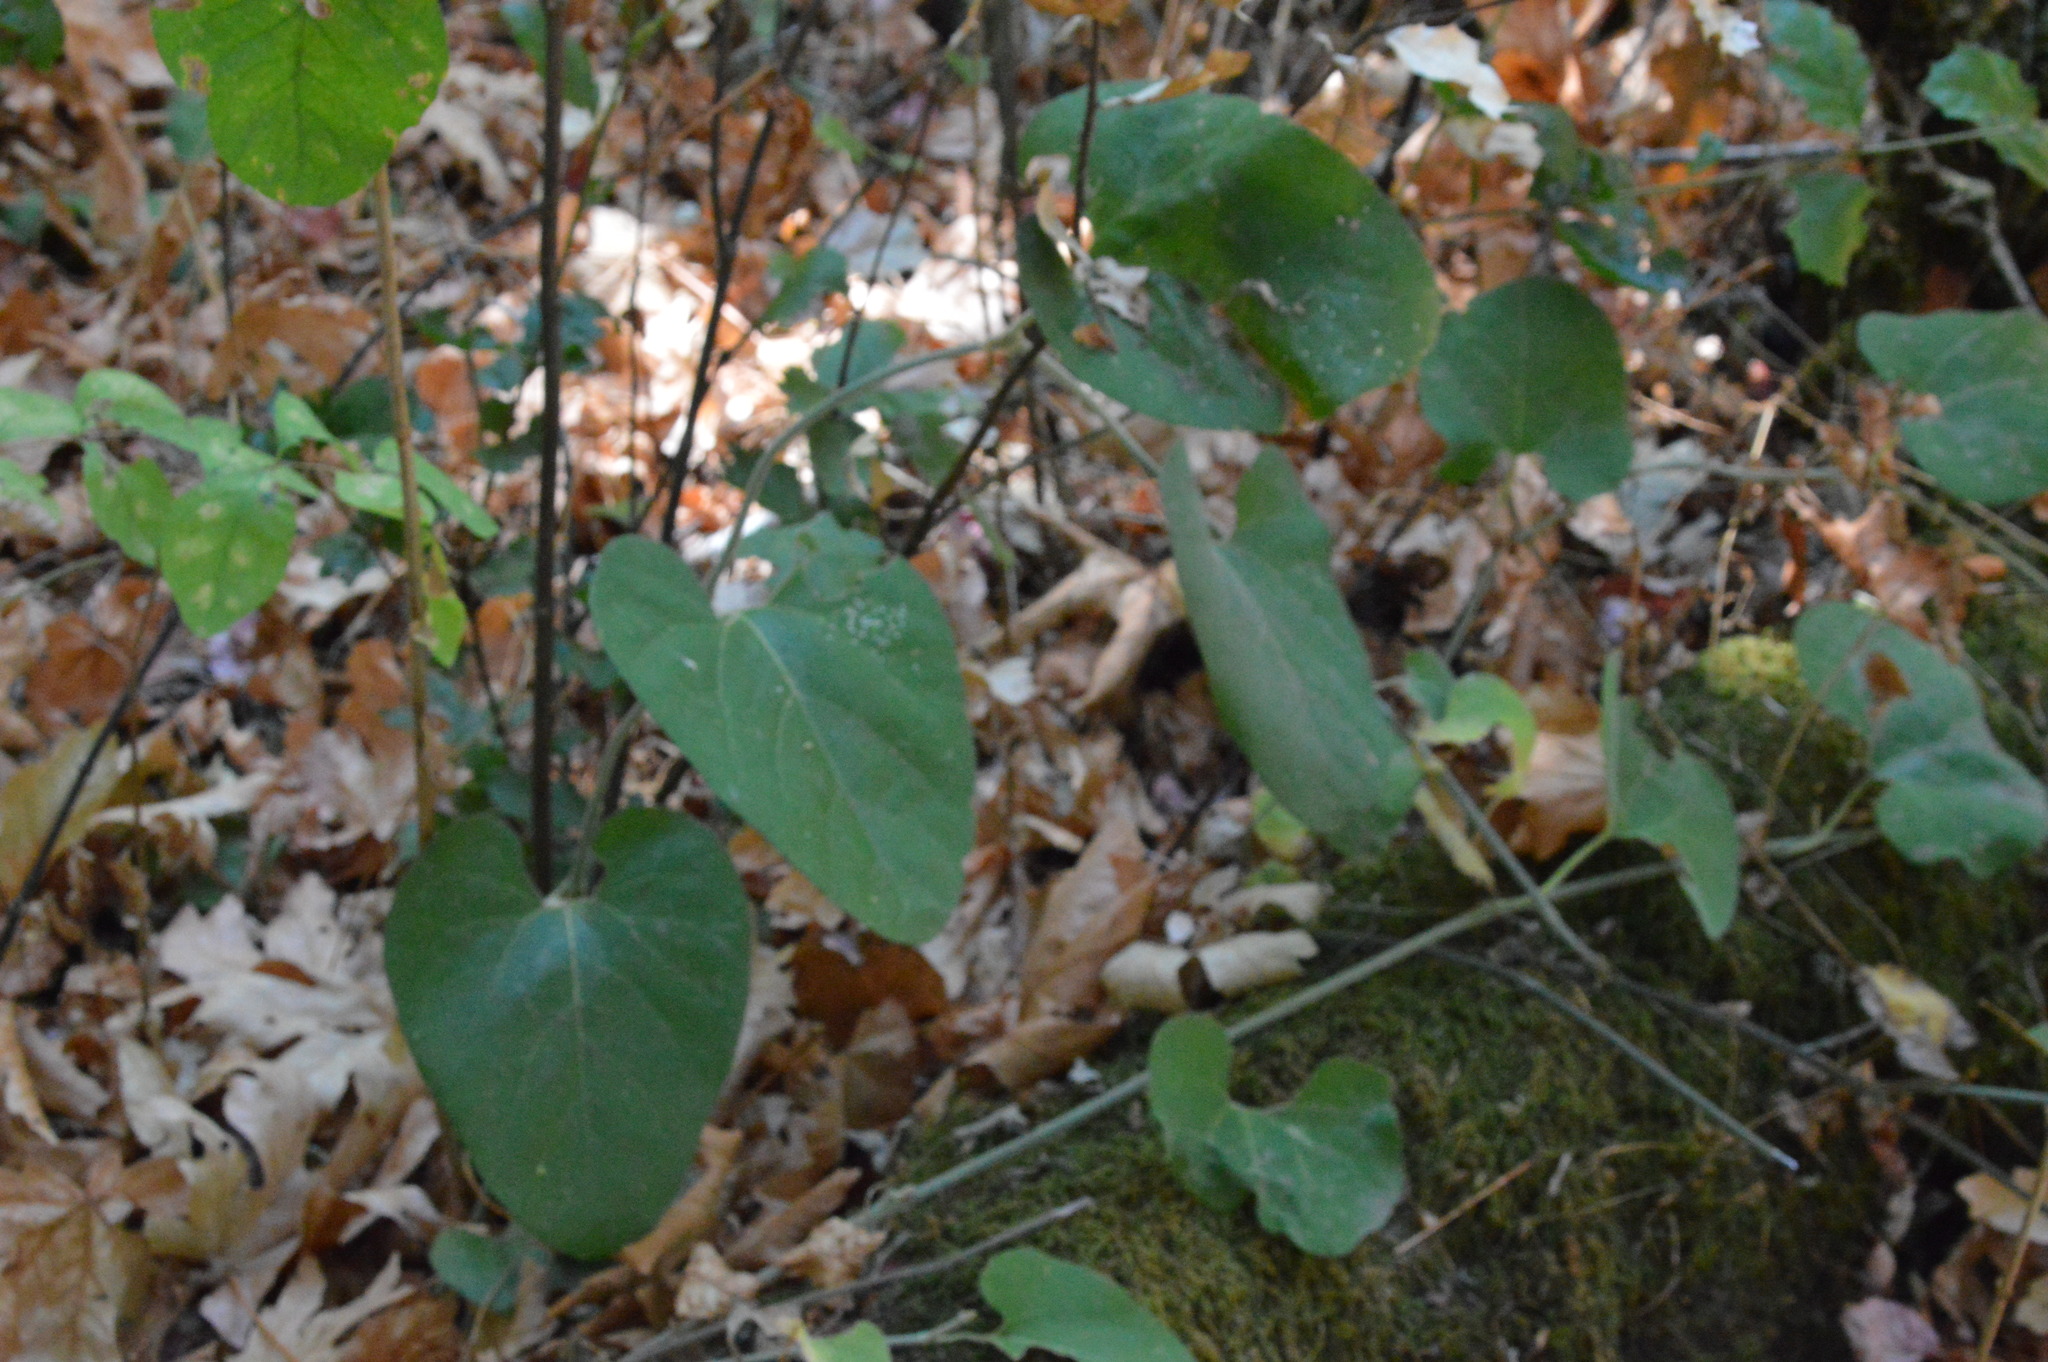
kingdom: Plantae
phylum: Tracheophyta
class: Magnoliopsida
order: Piperales
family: Aristolochiaceae
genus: Isotrema
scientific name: Isotrema californicum
